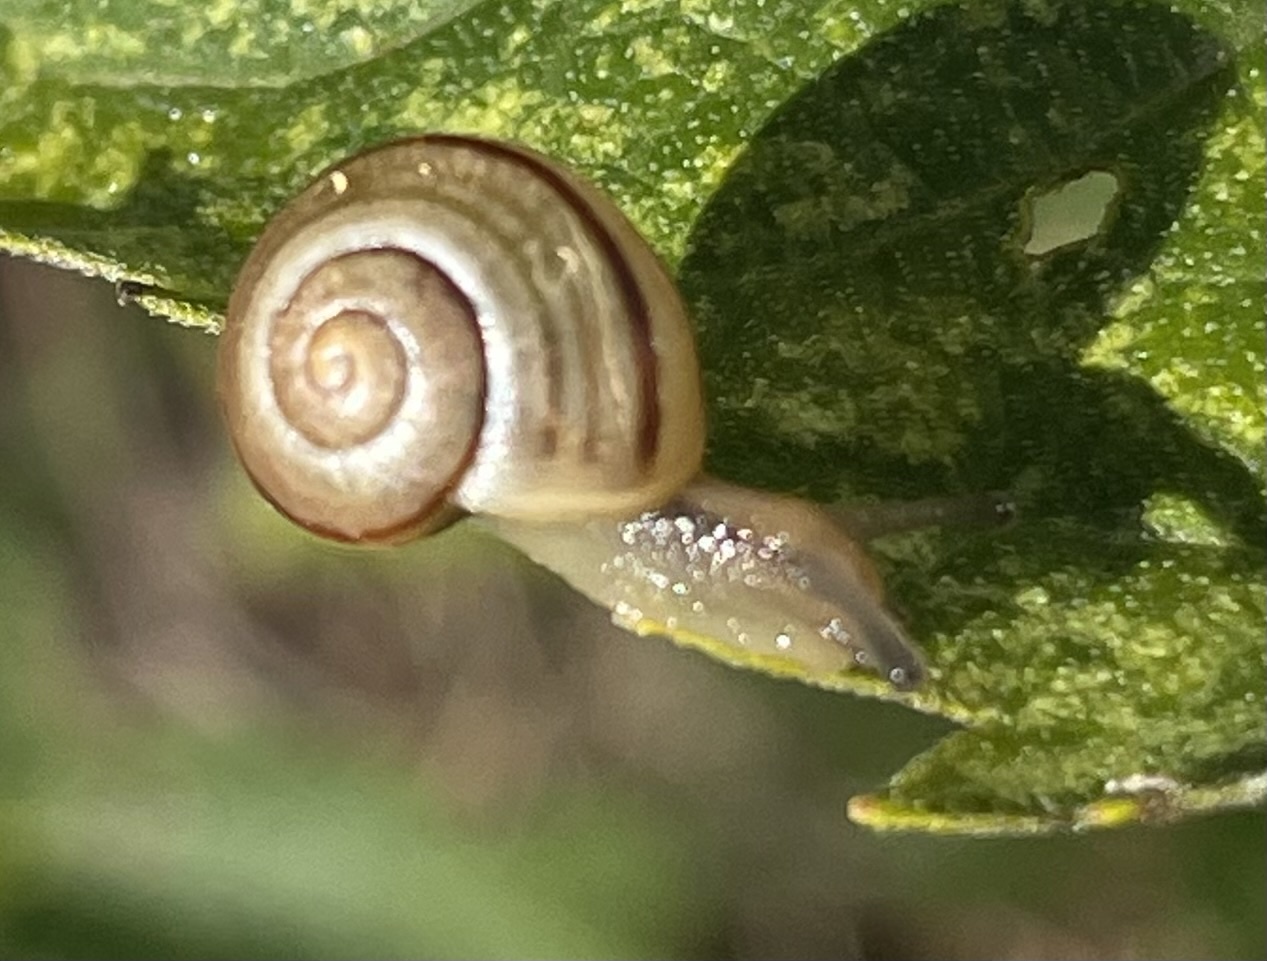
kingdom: Animalia
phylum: Mollusca
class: Gastropoda
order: Stylommatophora
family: Helicidae
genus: Cepaea
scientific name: Cepaea
